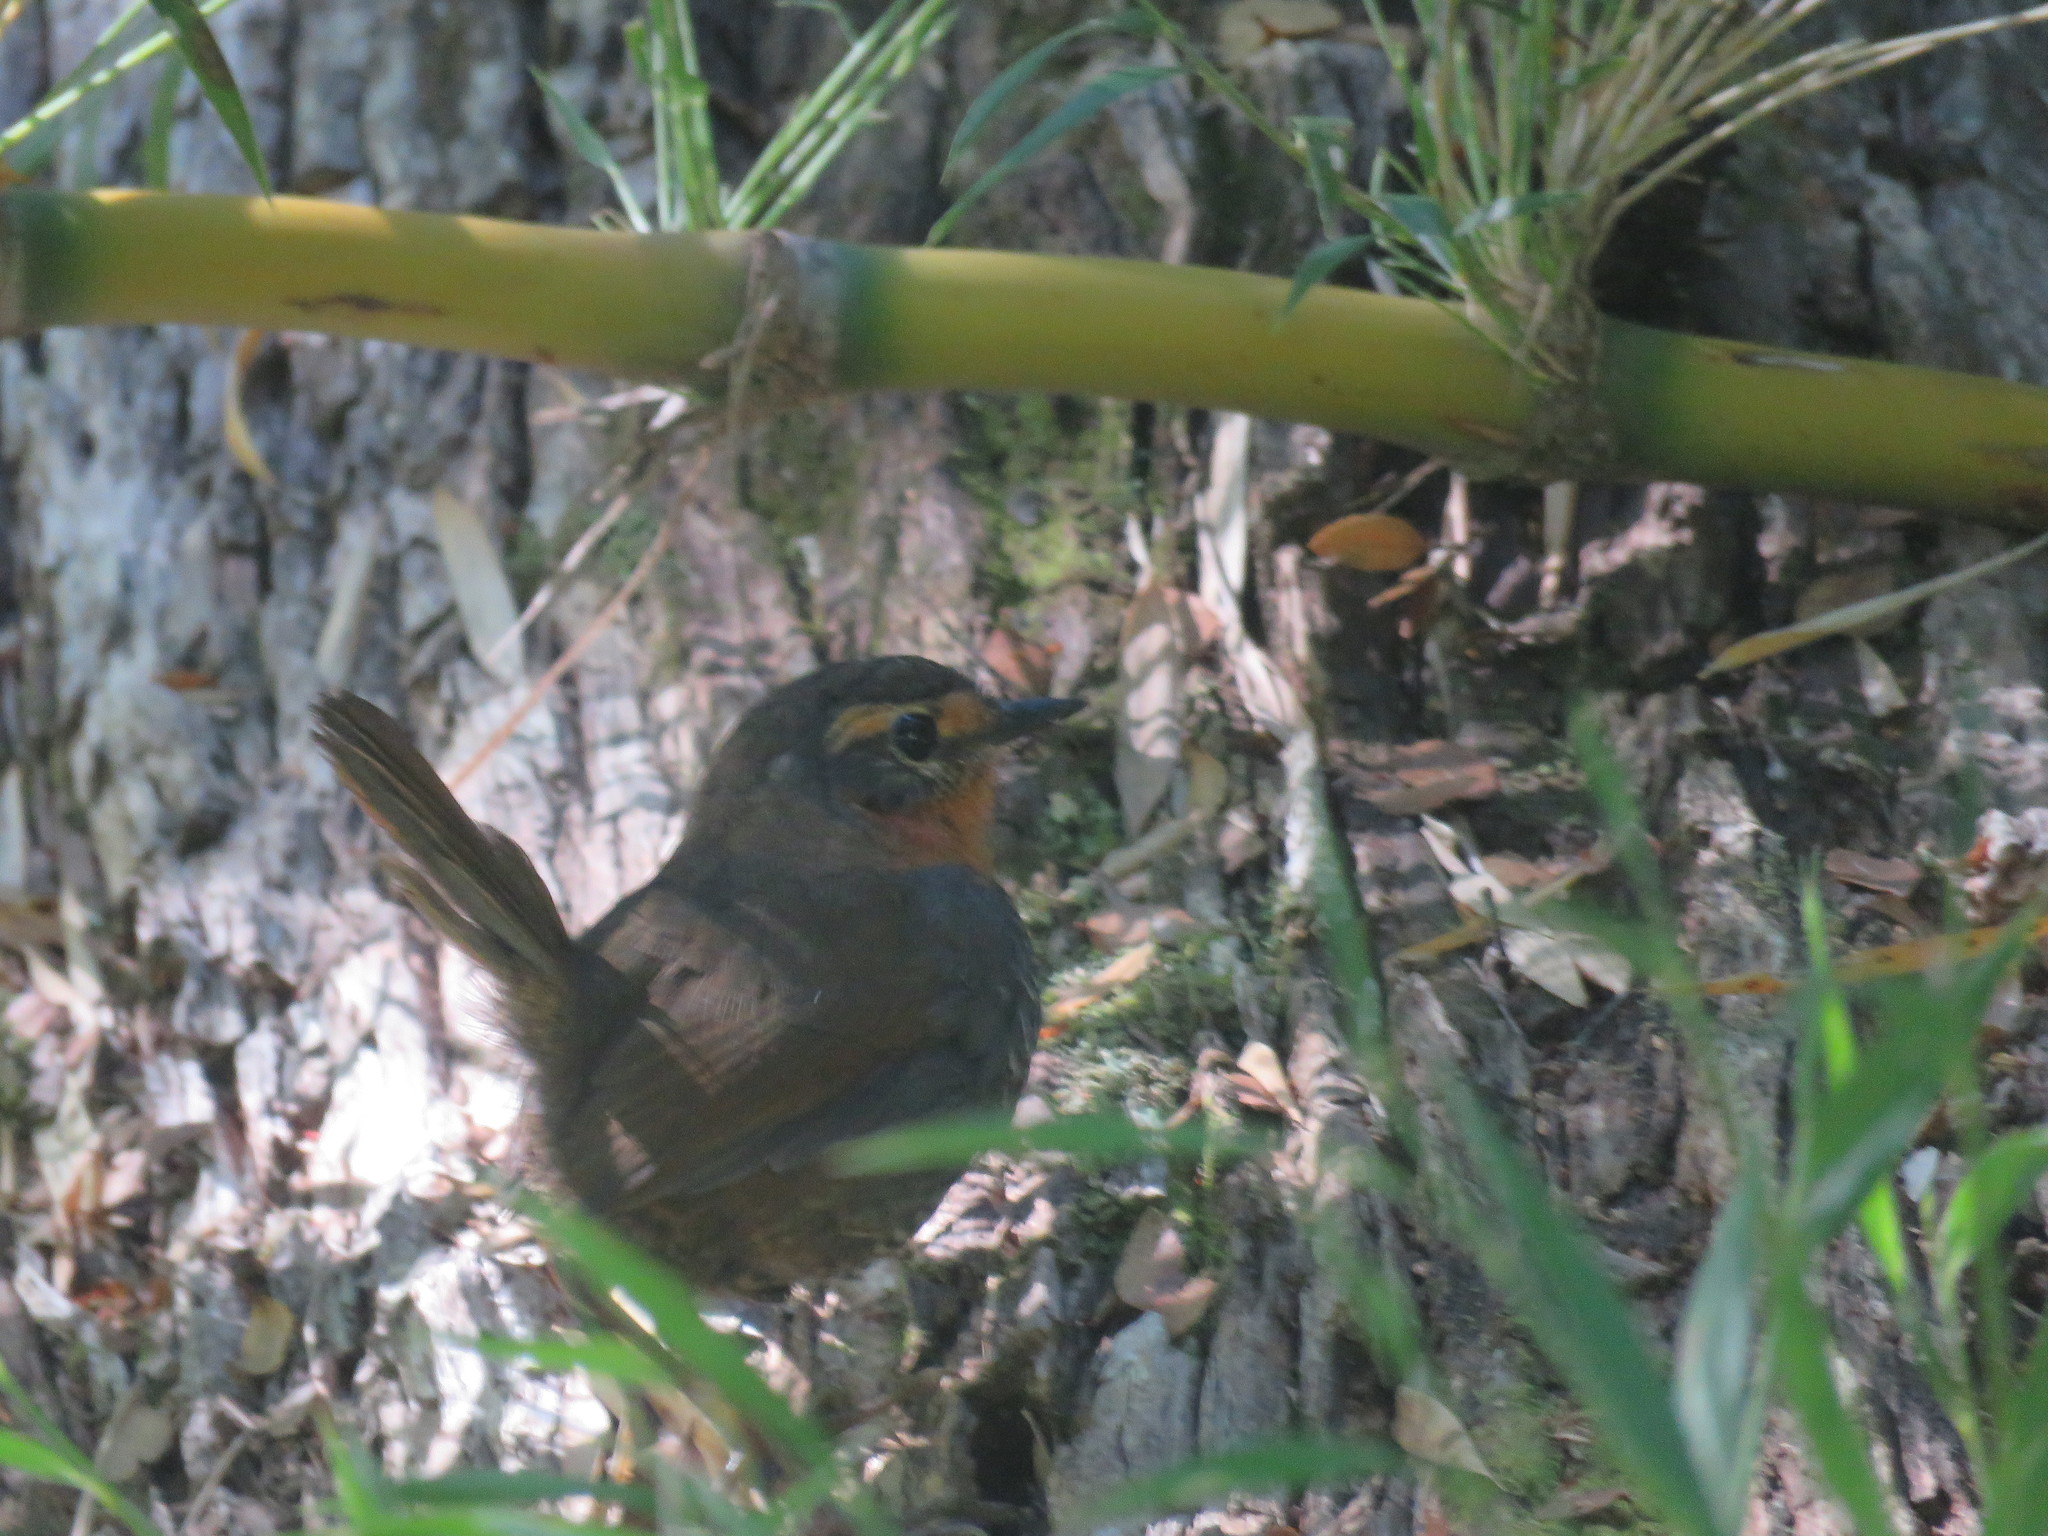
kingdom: Animalia
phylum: Chordata
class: Aves
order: Passeriformes
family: Rhinocryptidae
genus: Scelorchilus
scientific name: Scelorchilus rubecula
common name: Chucao tapaculo
